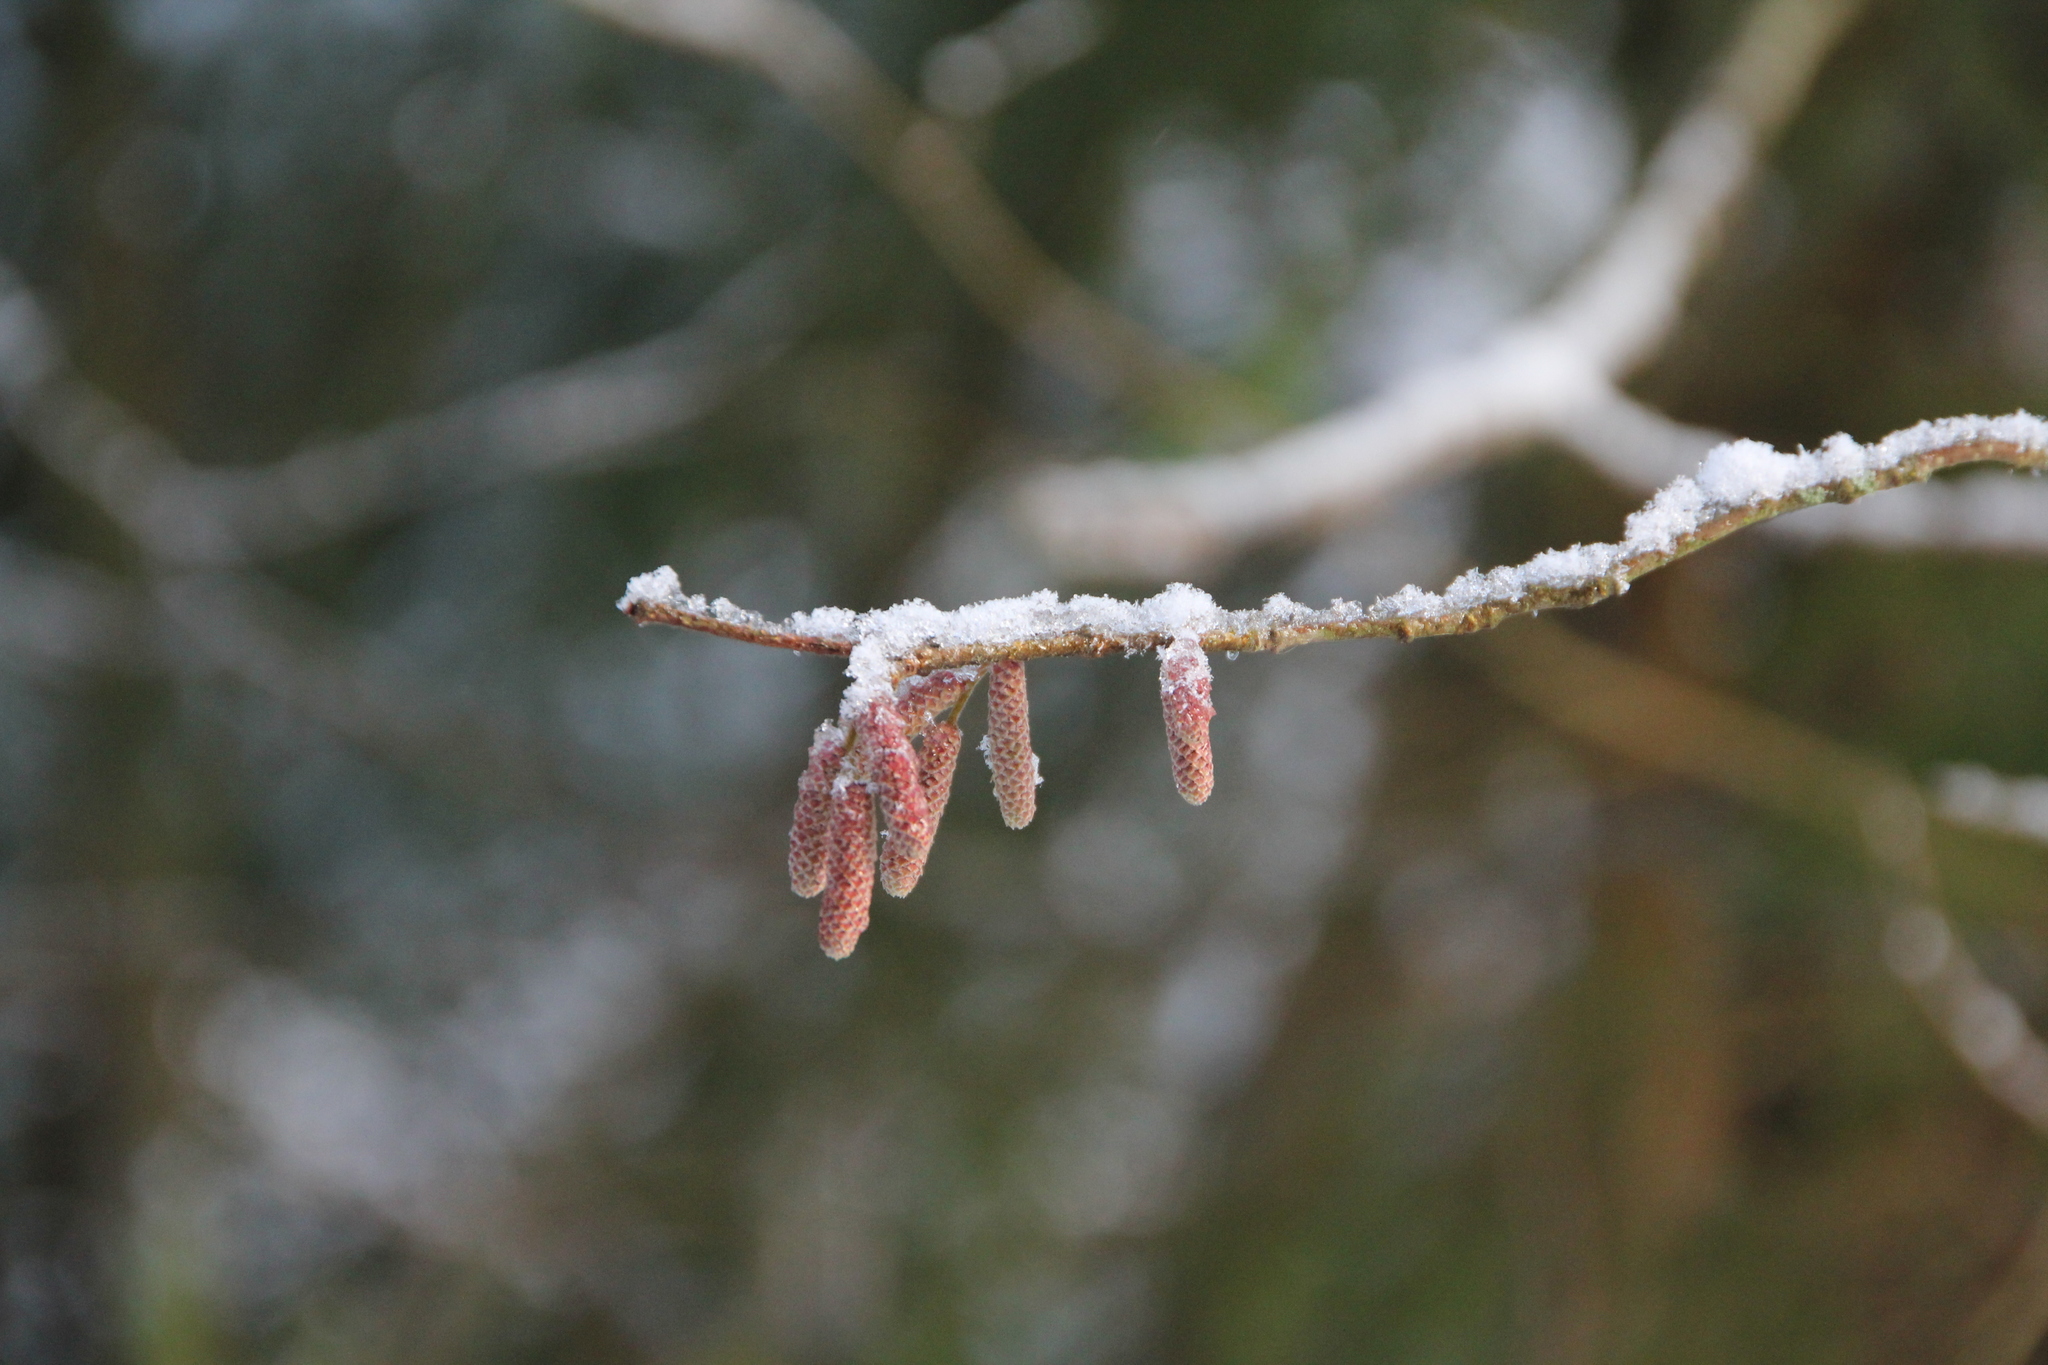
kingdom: Plantae
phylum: Tracheophyta
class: Magnoliopsida
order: Fagales
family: Betulaceae
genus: Corylus
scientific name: Corylus avellana
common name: European hazel
